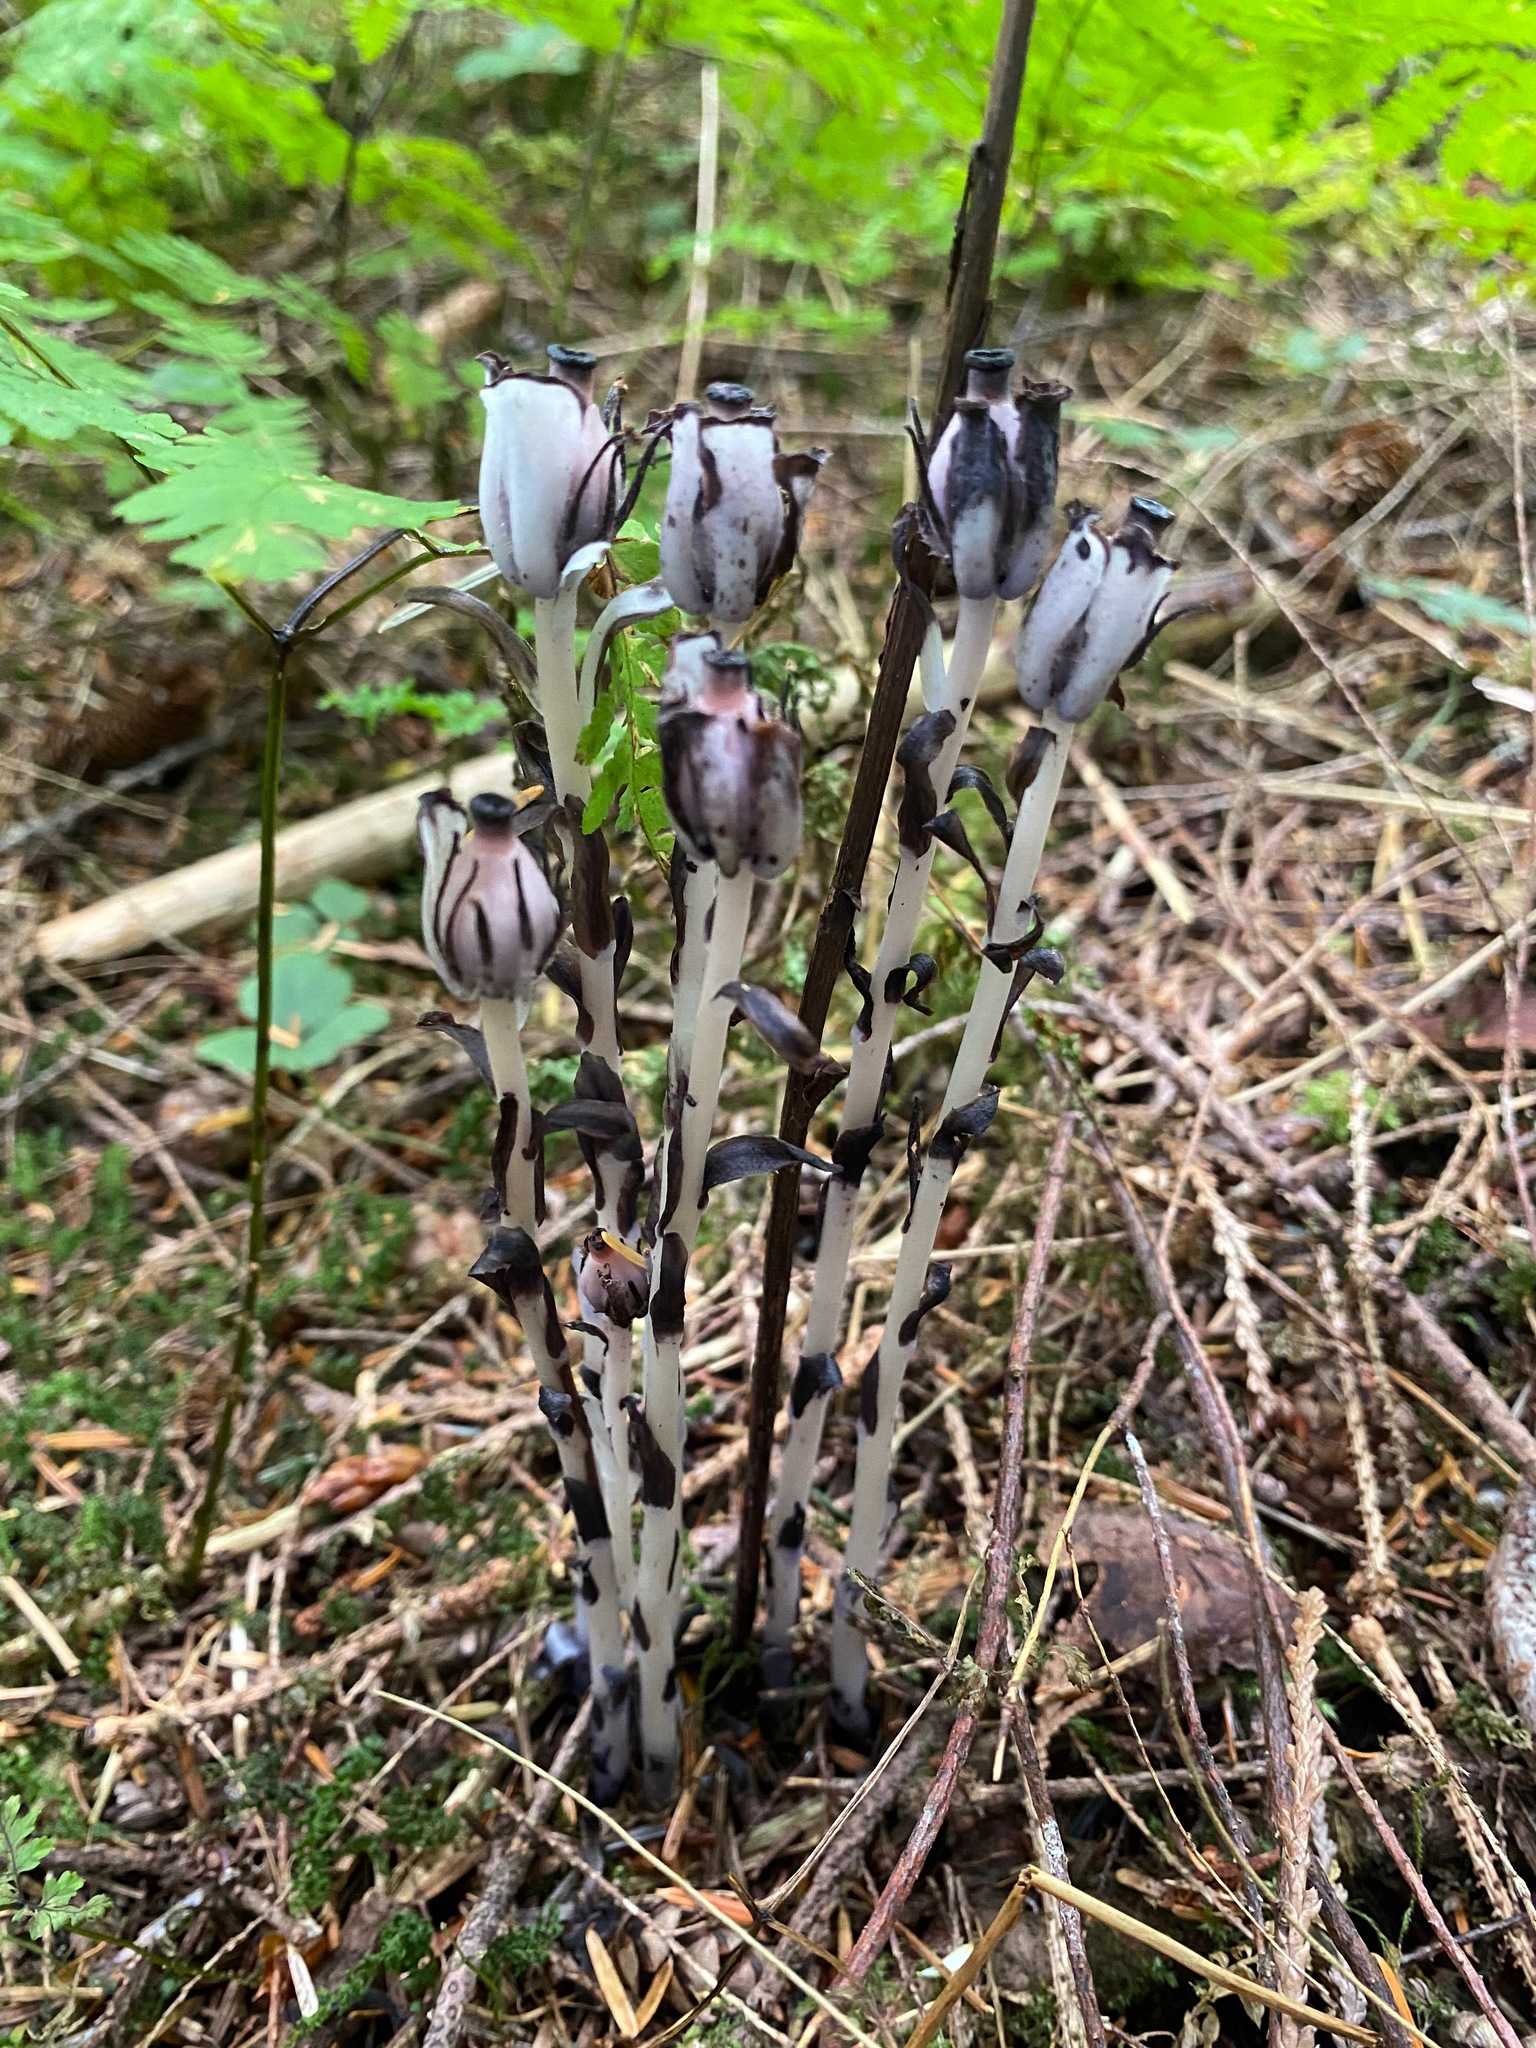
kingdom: Plantae
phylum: Tracheophyta
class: Magnoliopsida
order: Ericales
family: Ericaceae
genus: Monotropa
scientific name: Monotropa uniflora
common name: Convulsion root
